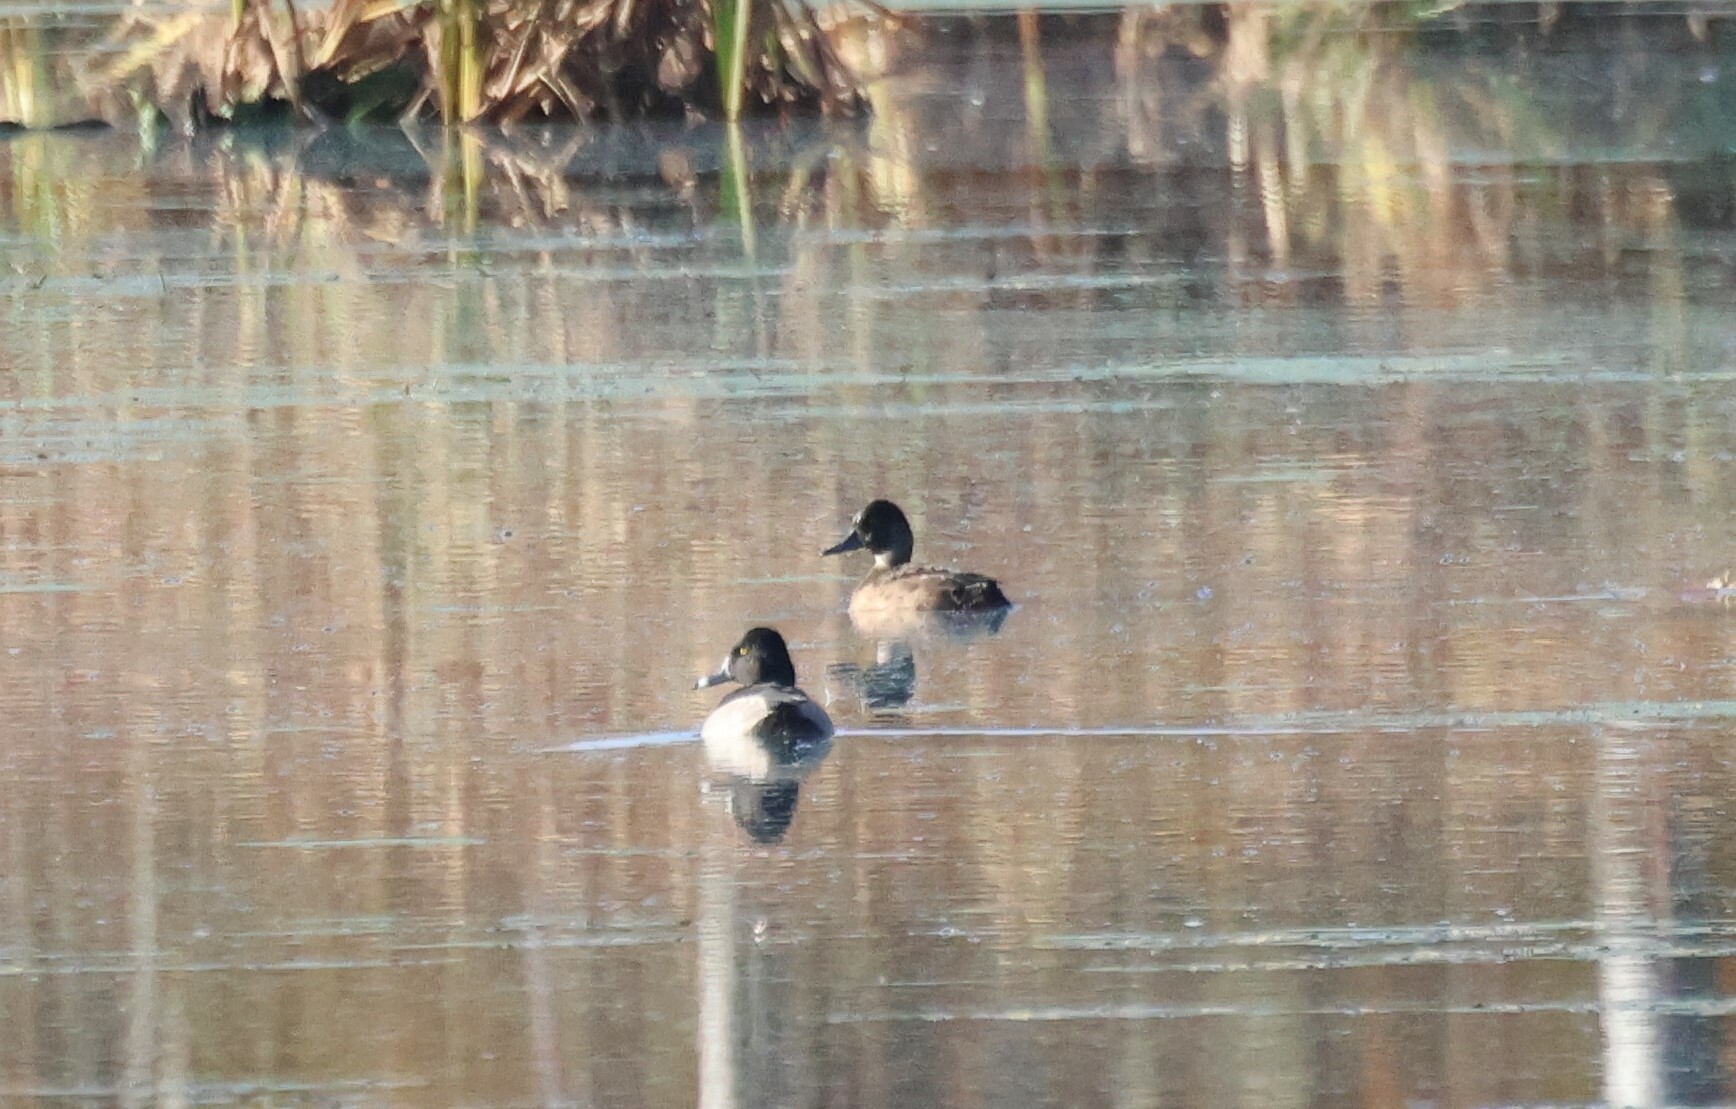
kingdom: Animalia
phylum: Chordata
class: Aves
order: Anseriformes
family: Anatidae
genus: Aythya
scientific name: Aythya collaris
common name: Ring-necked duck
